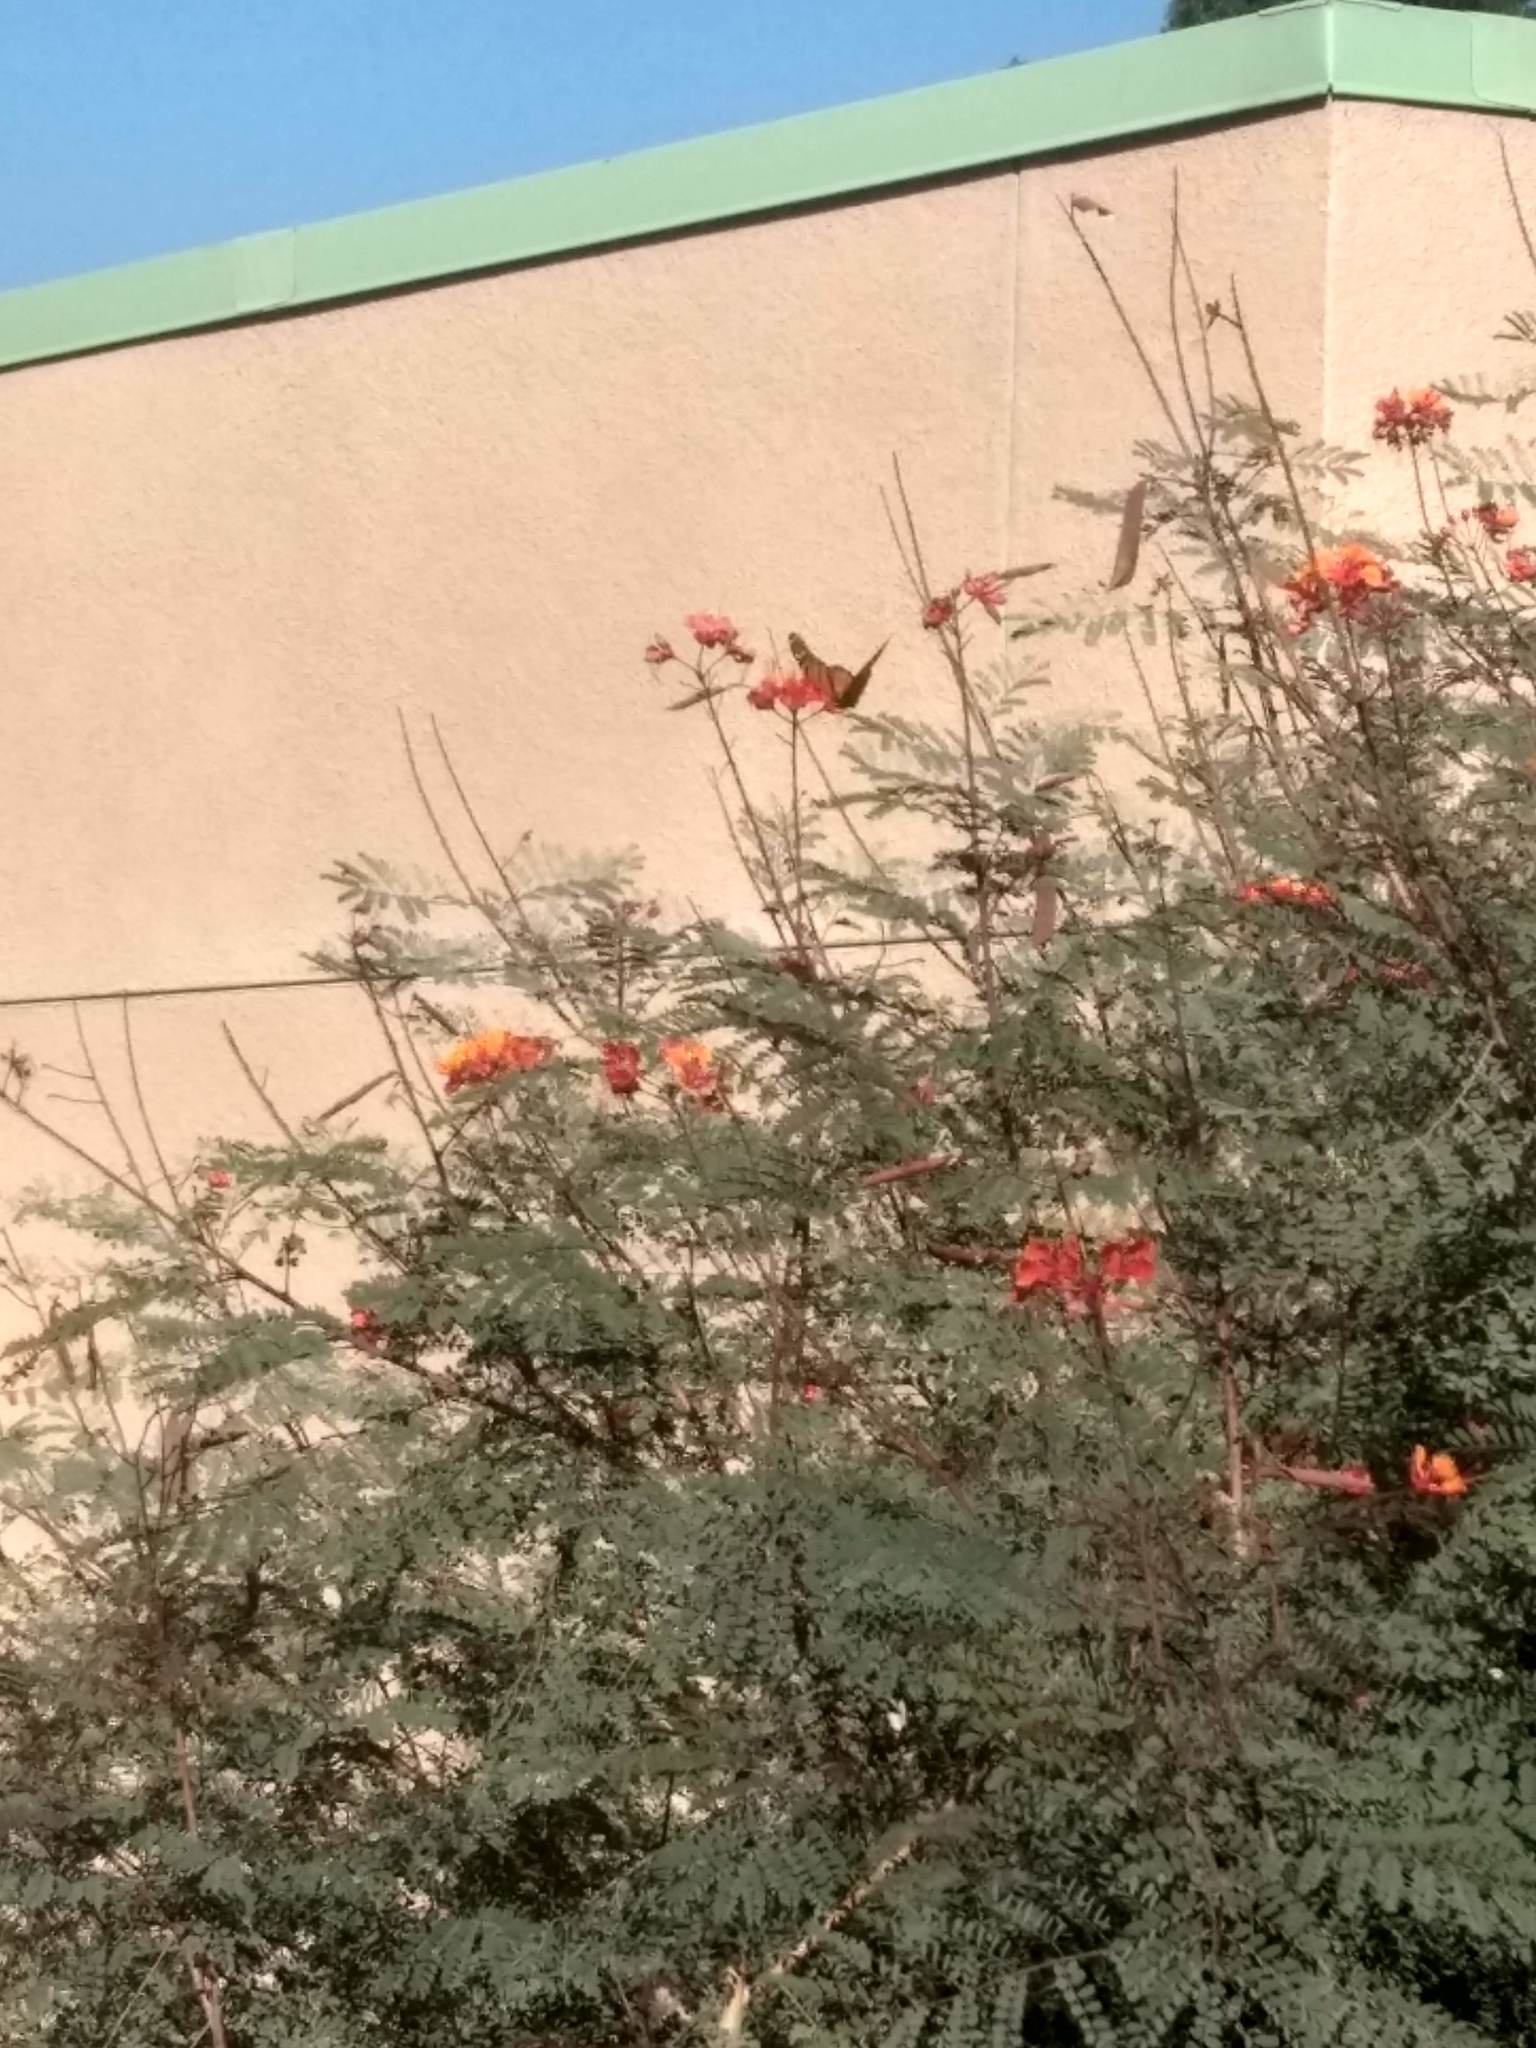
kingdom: Animalia
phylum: Arthropoda
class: Insecta
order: Lepidoptera
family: Nymphalidae
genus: Danaus
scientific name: Danaus plexippus
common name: Monarch
